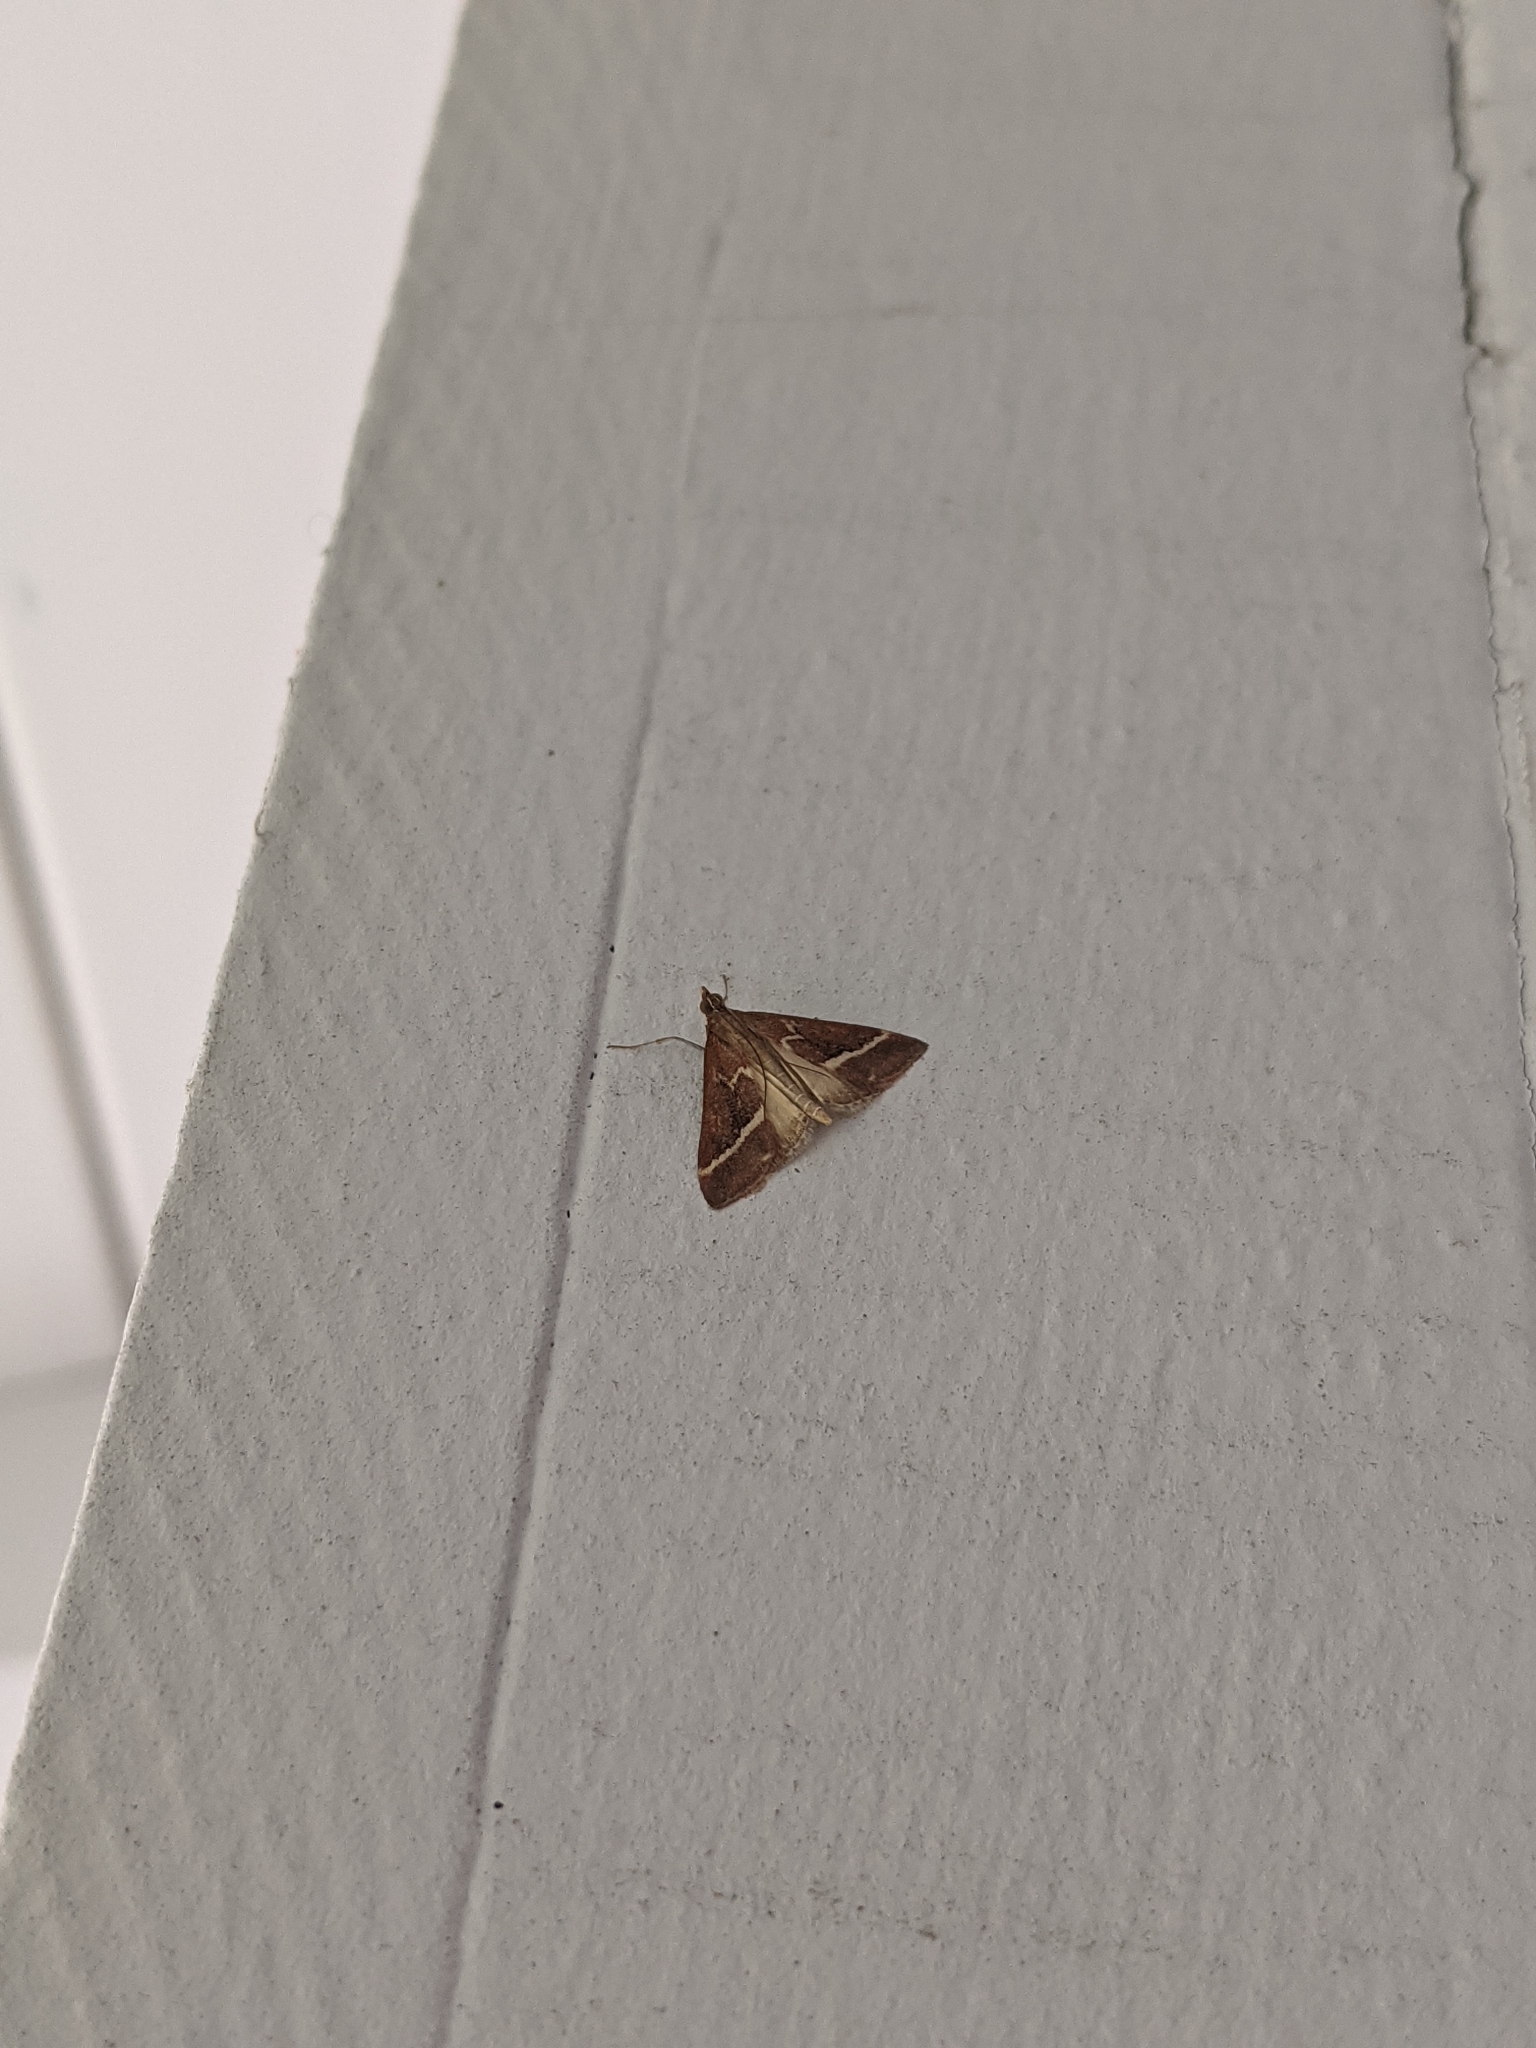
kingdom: Animalia
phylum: Arthropoda
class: Insecta
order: Lepidoptera
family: Crambidae
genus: Pyrausta
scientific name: Pyrausta volupialis
